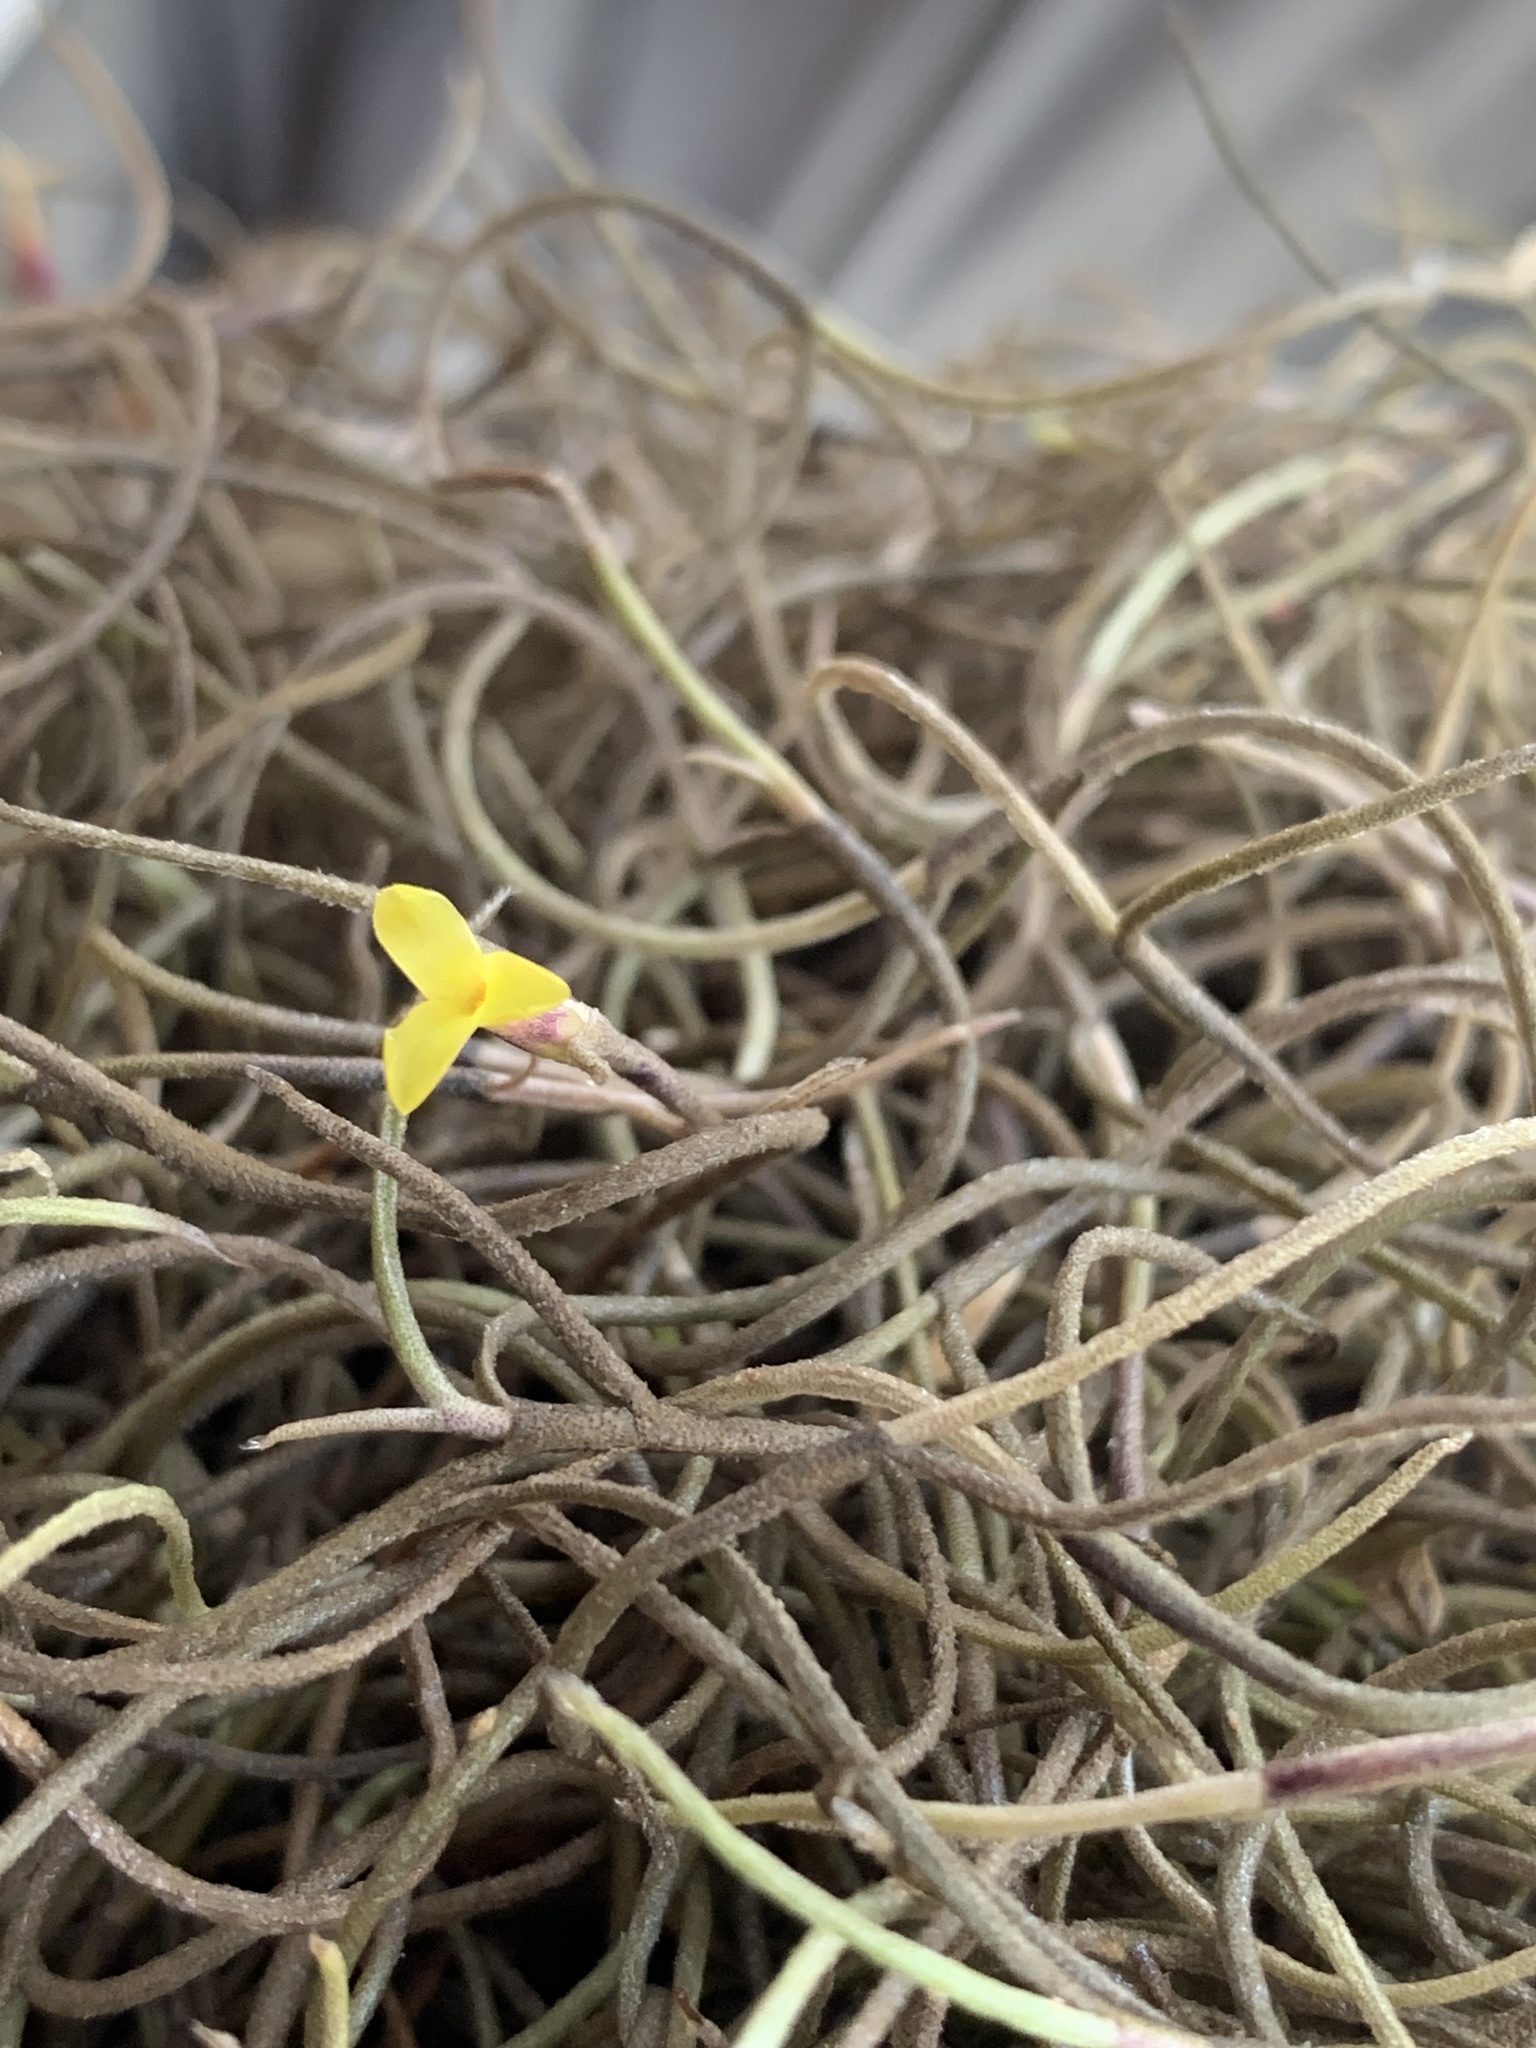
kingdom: Plantae
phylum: Tracheophyta
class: Liliopsida
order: Poales
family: Bromeliaceae
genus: Tillandsia
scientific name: Tillandsia usneoides
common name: Spanish moss
